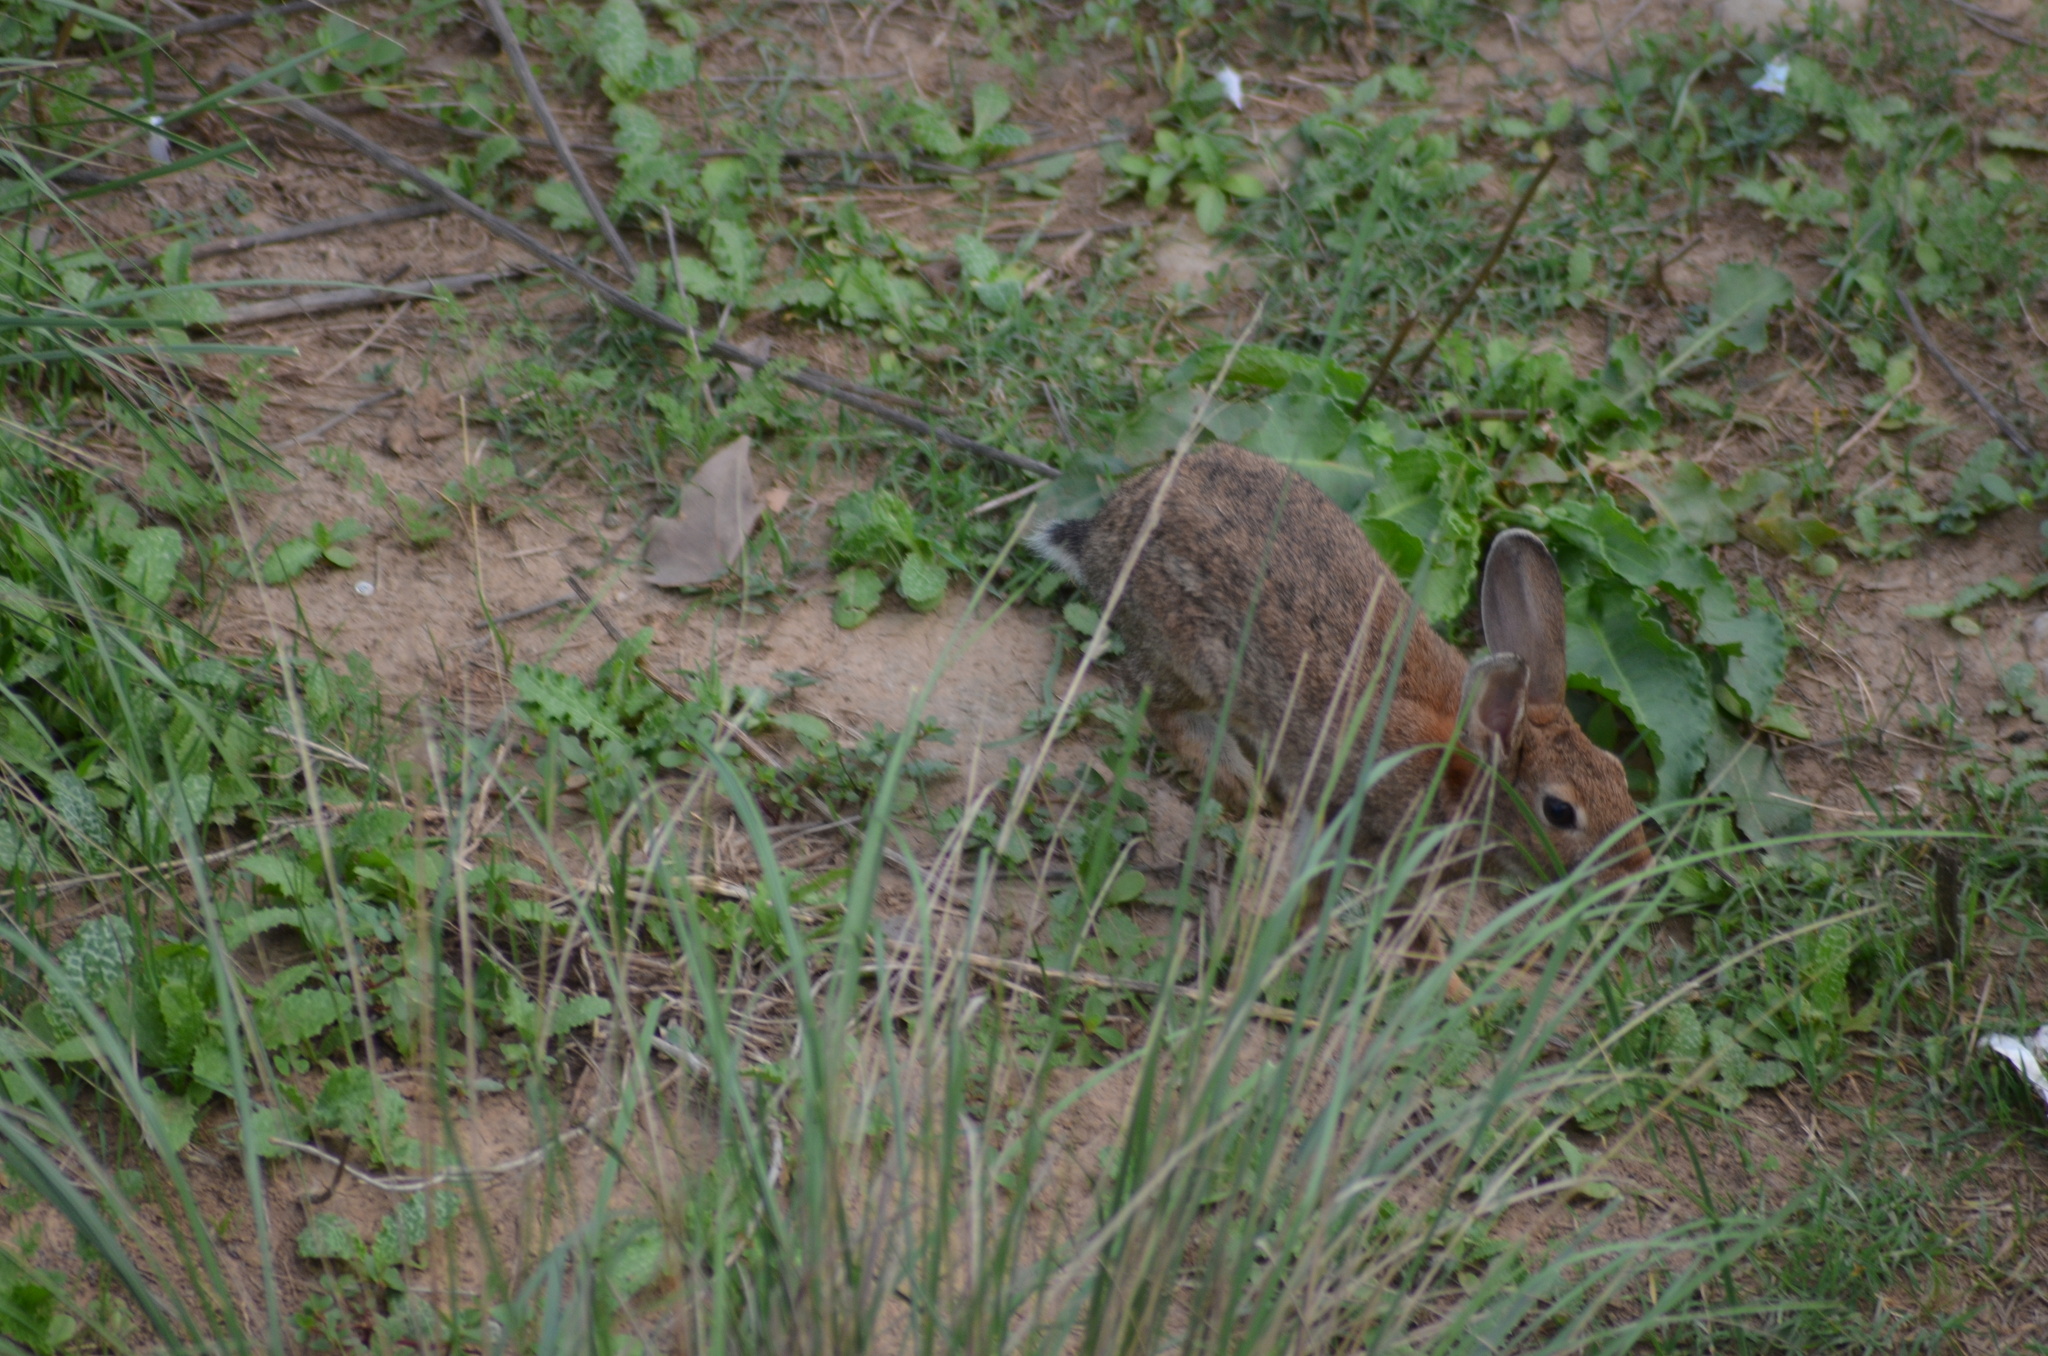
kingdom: Animalia
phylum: Chordata
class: Mammalia
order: Lagomorpha
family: Leporidae
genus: Oryctolagus
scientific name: Oryctolagus cuniculus
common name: European rabbit
